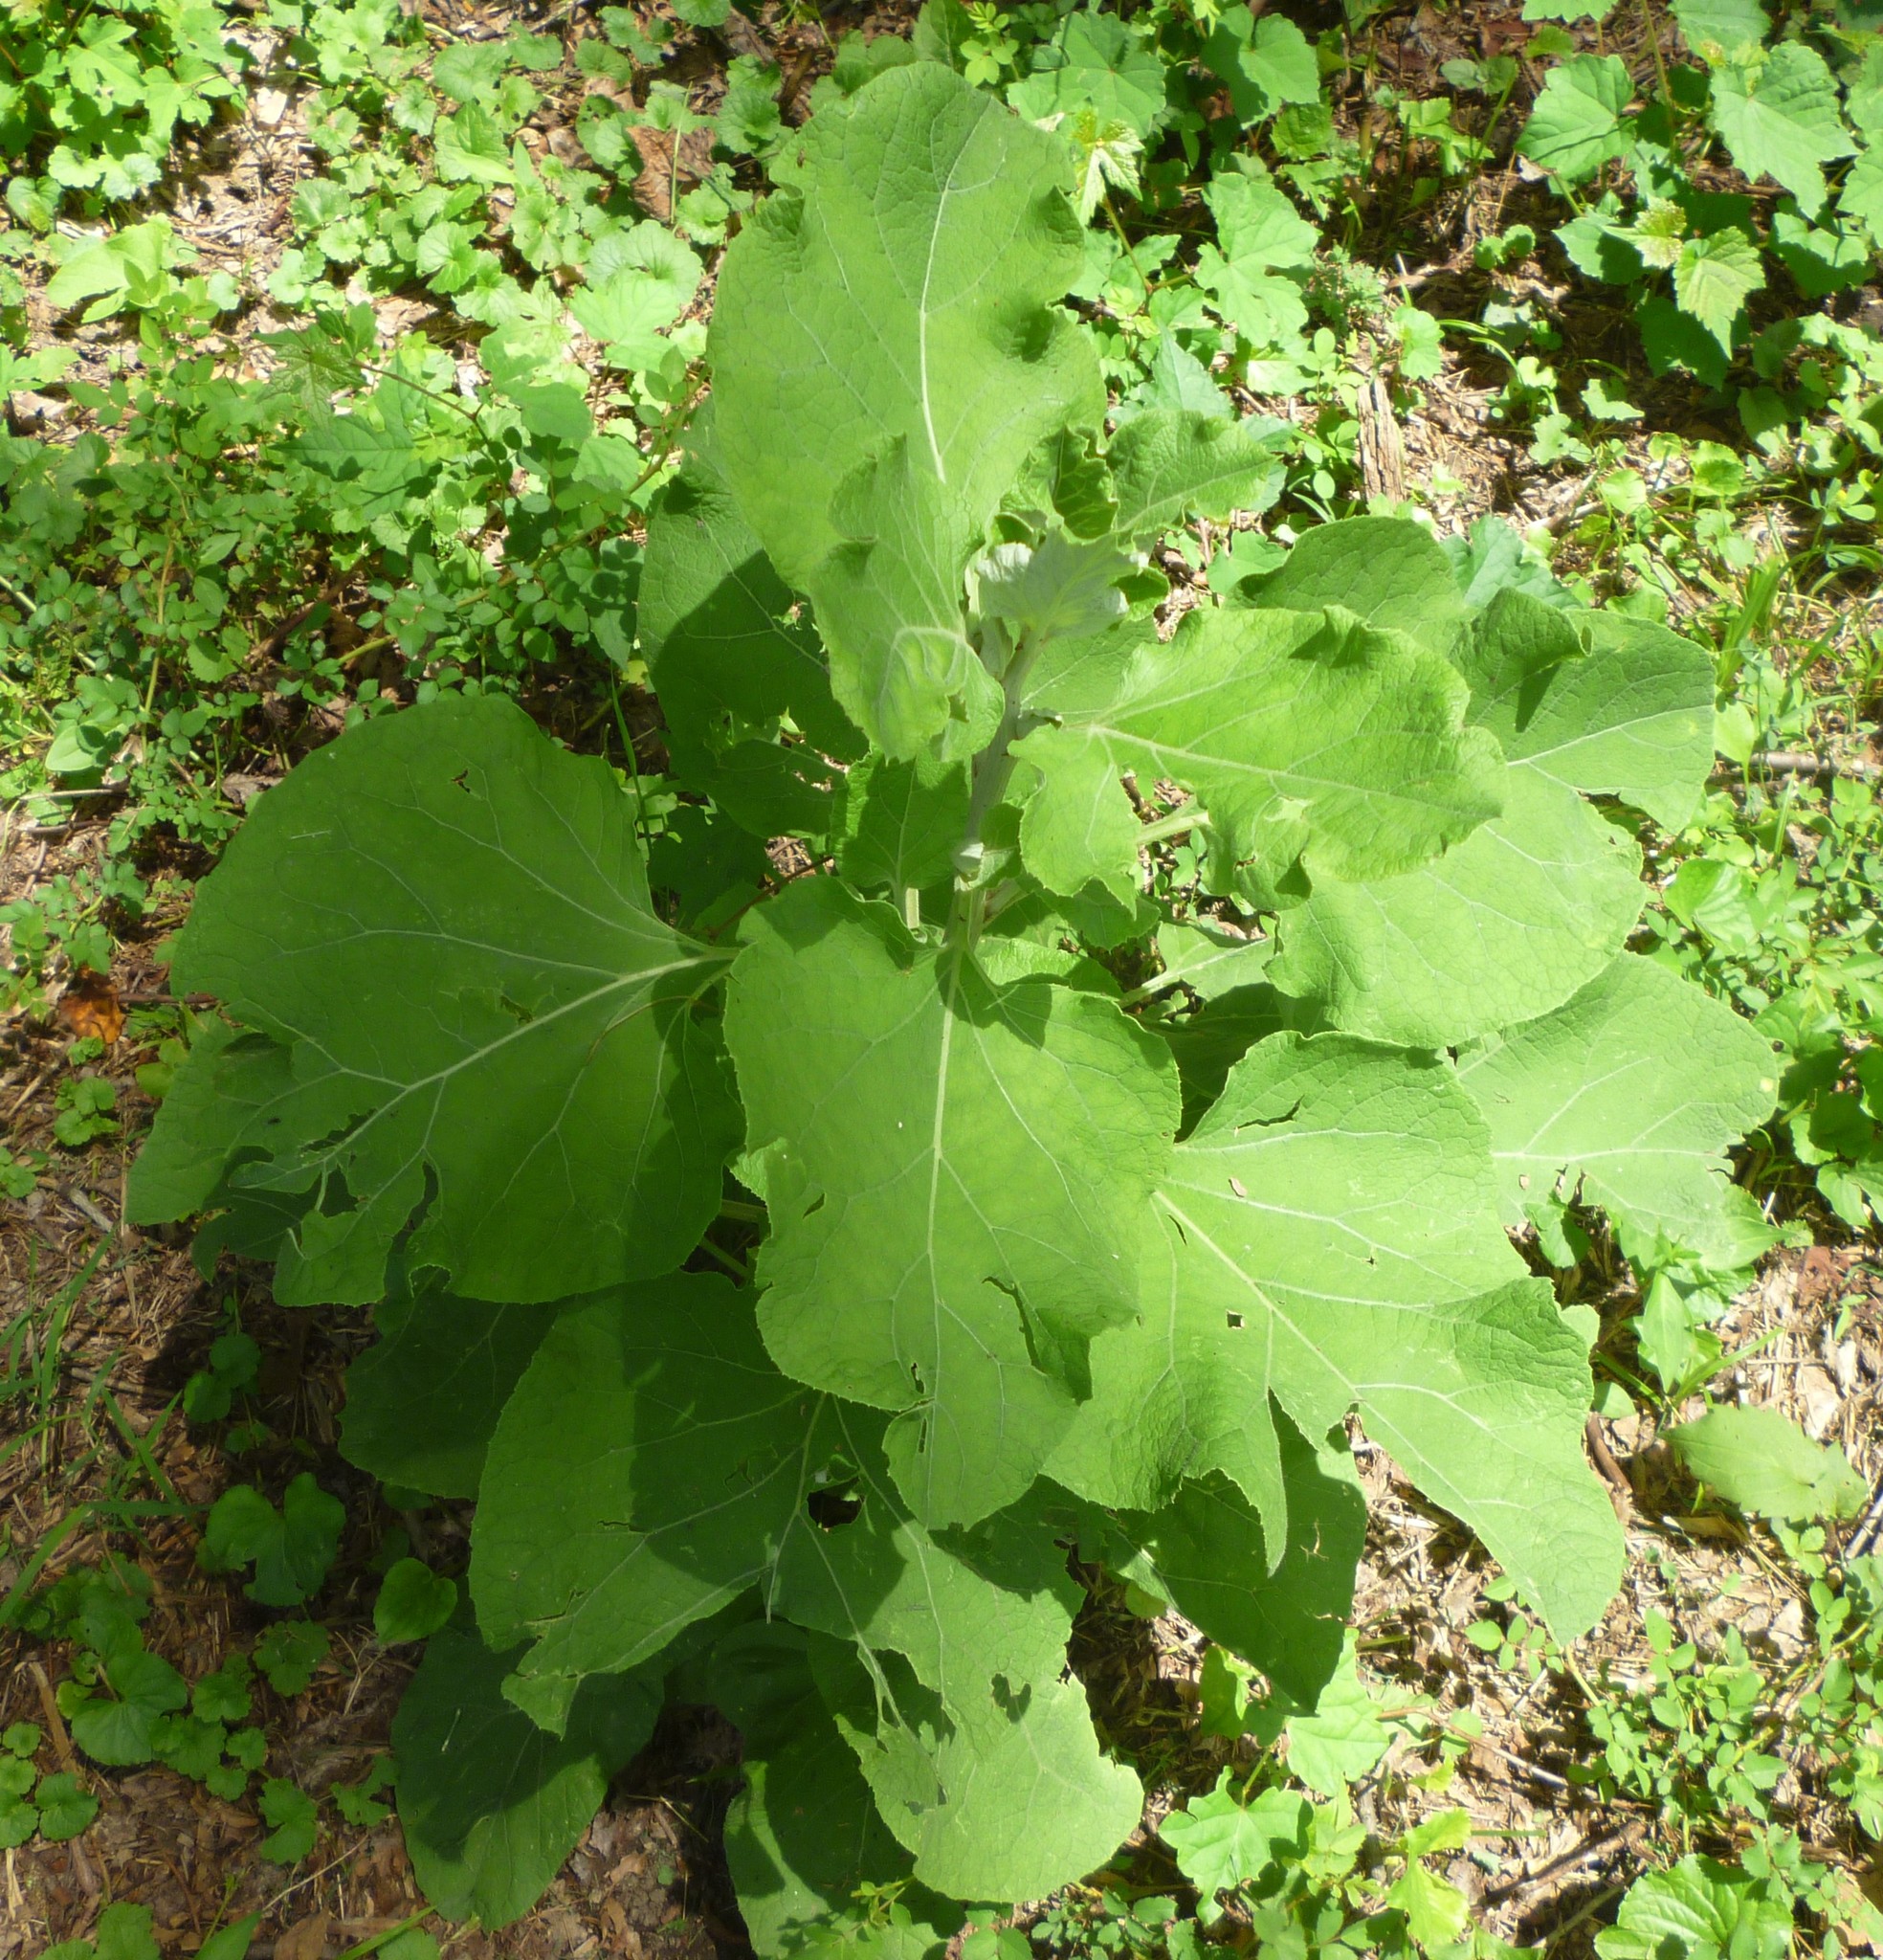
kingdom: Plantae
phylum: Tracheophyta
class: Magnoliopsida
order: Asterales
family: Asteraceae
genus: Arctium
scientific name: Arctium
